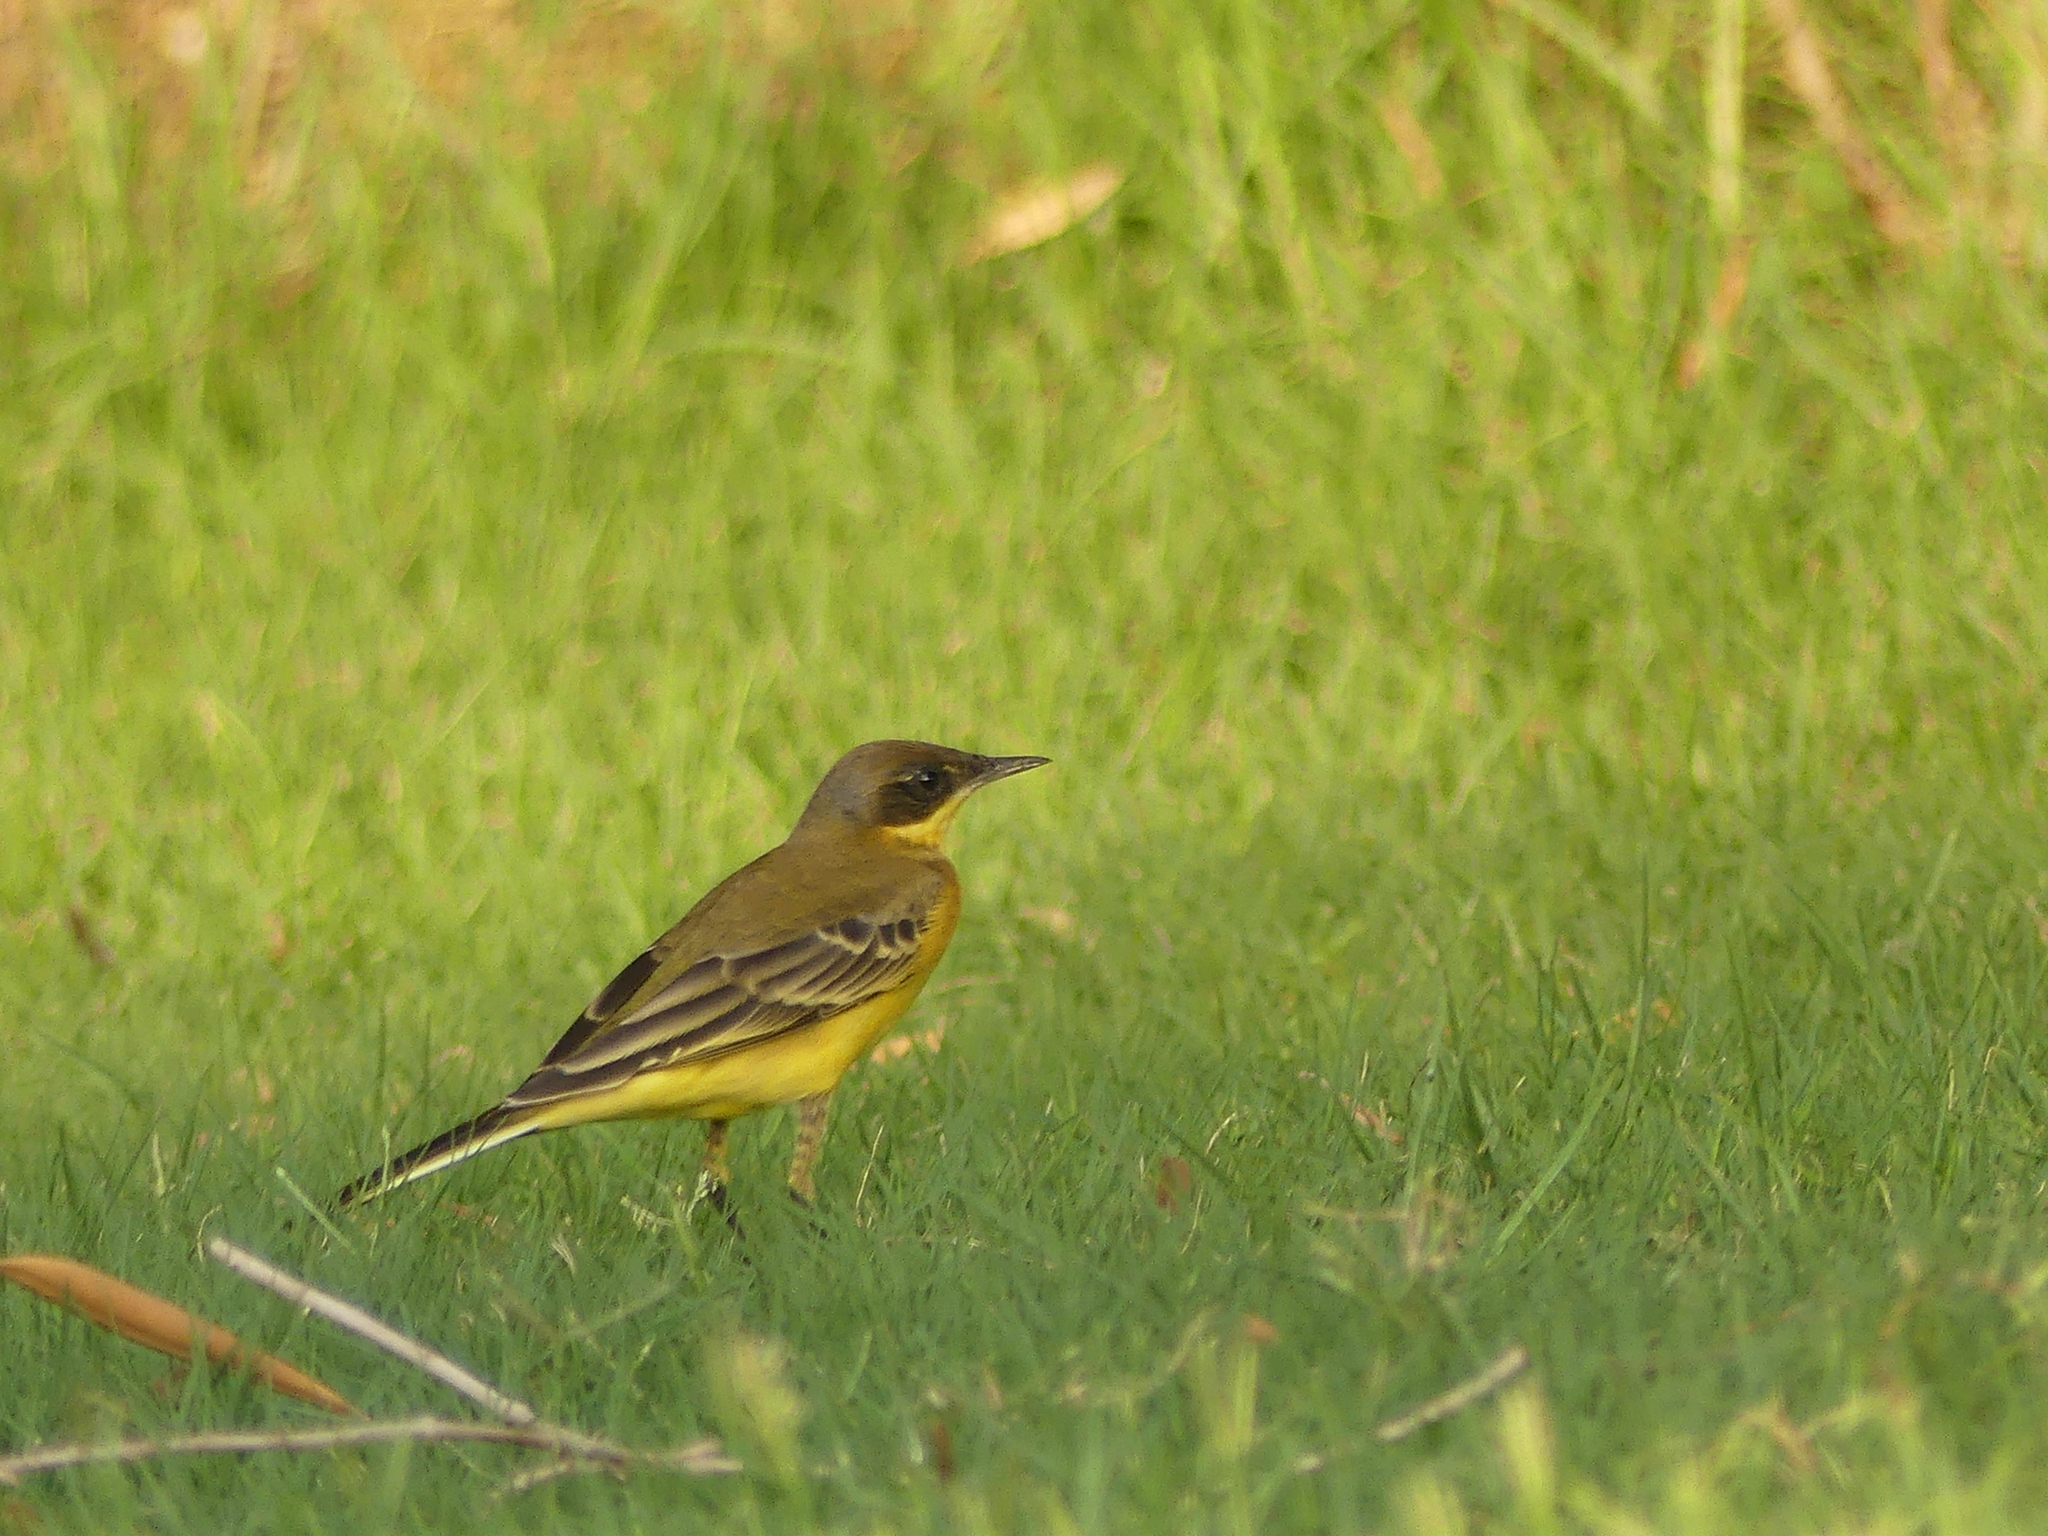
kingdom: Animalia
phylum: Chordata
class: Aves
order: Passeriformes
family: Motacillidae
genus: Motacilla
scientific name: Motacilla flava
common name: Western yellow wagtail
